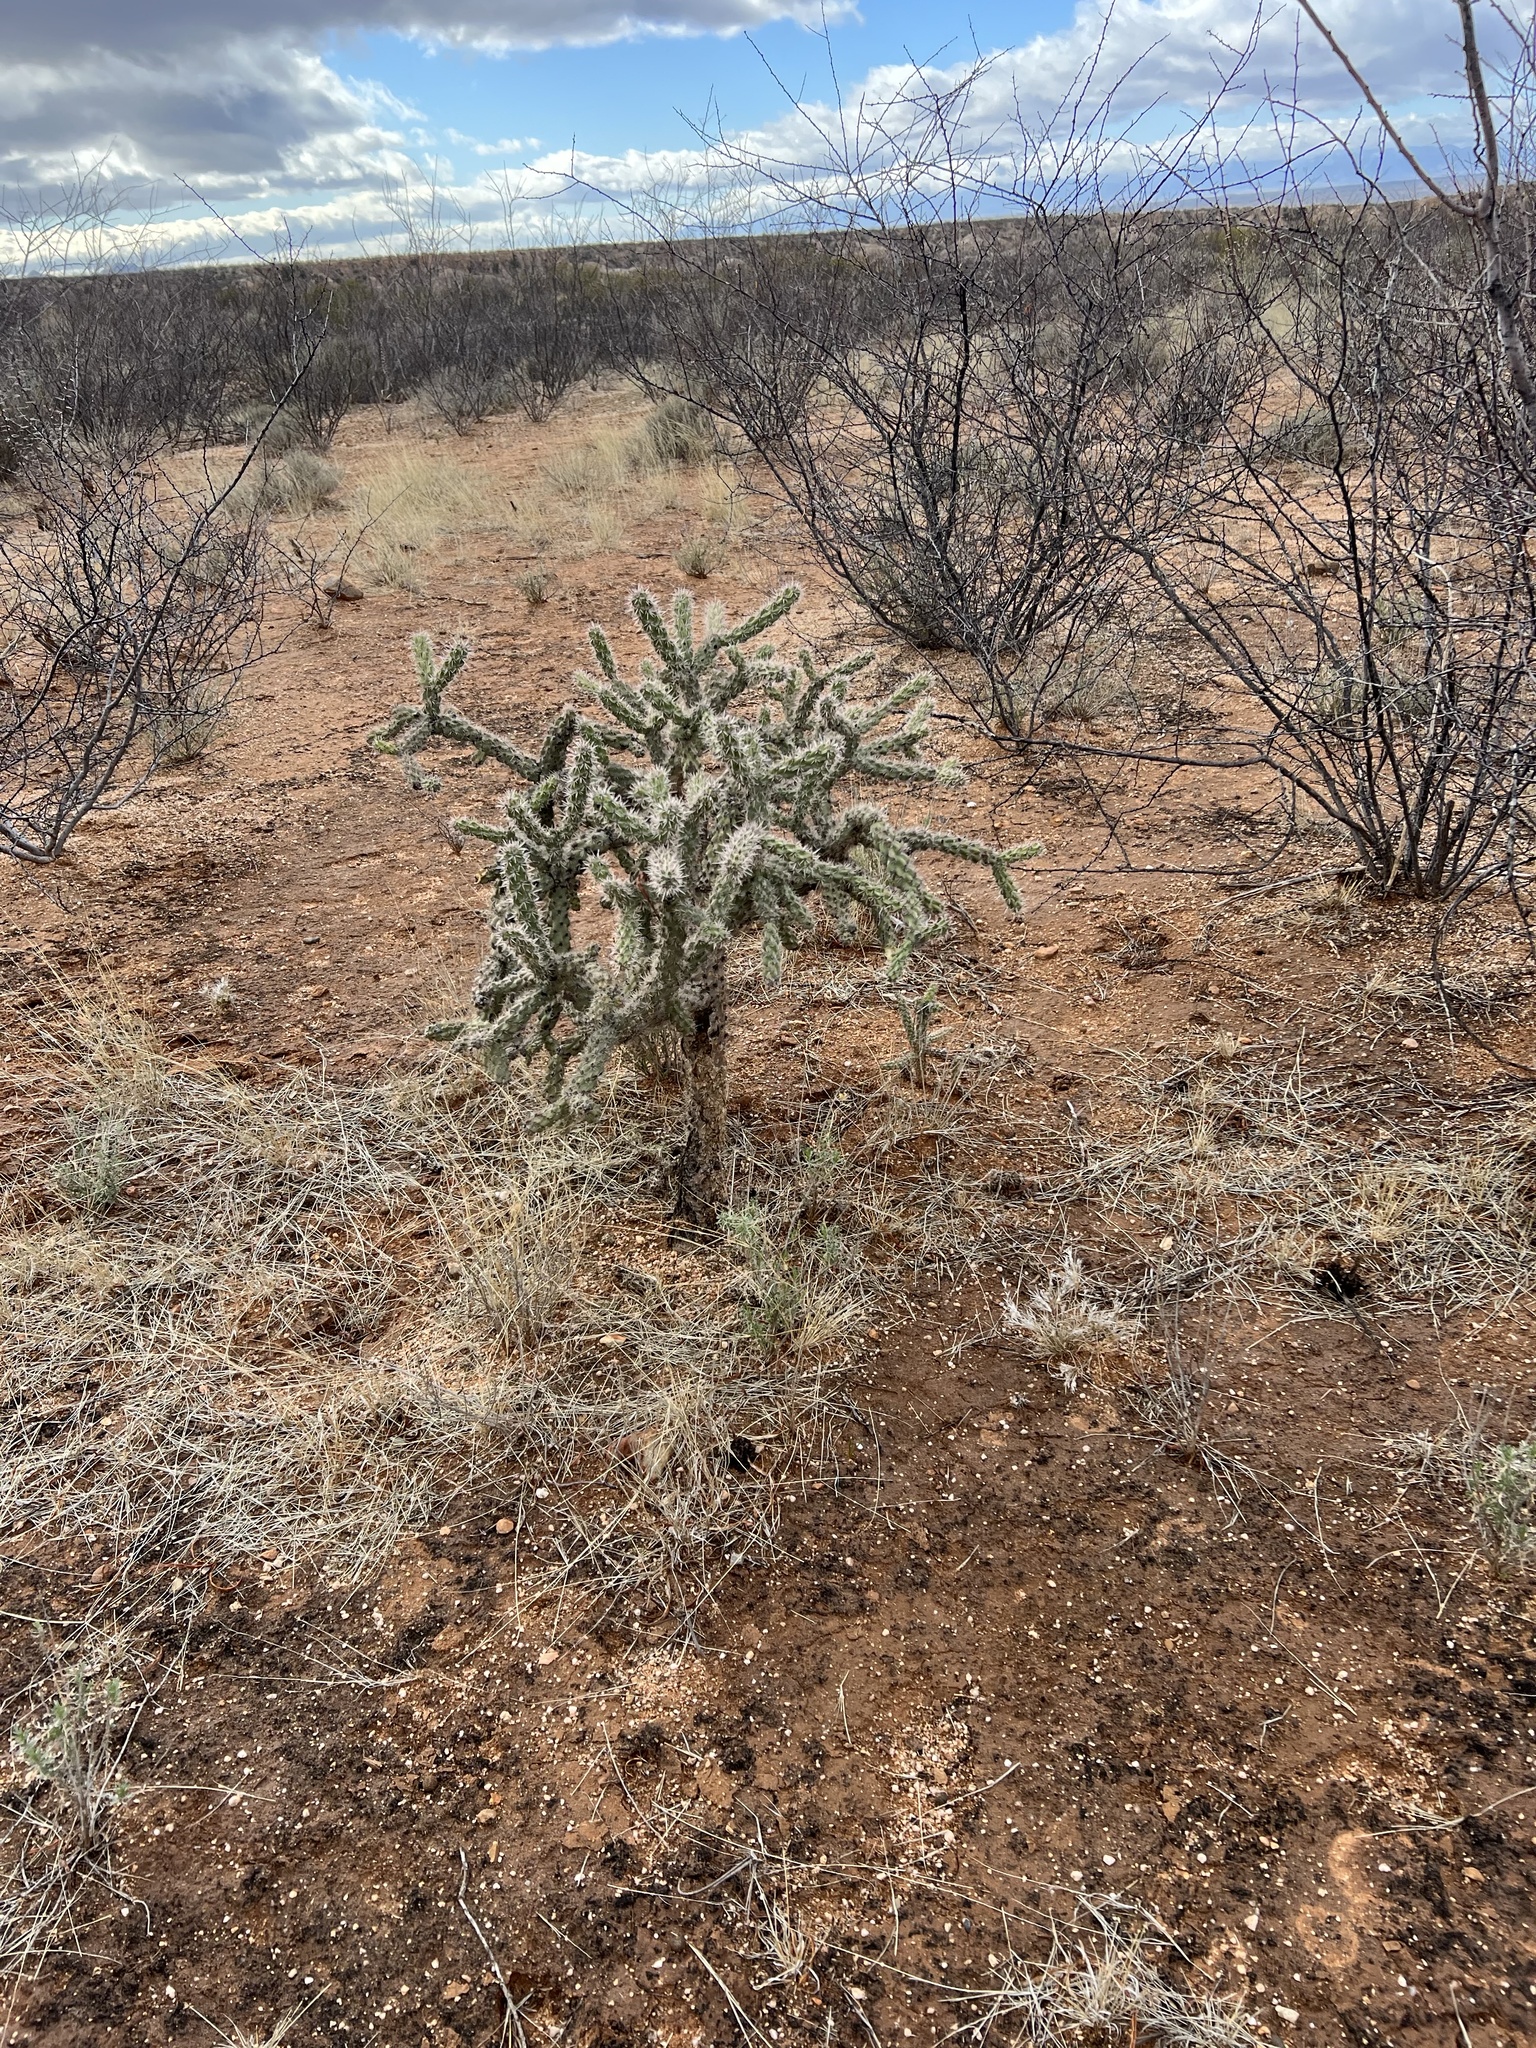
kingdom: Plantae
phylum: Tracheophyta
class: Magnoliopsida
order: Caryophyllales
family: Cactaceae
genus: Cylindropuntia
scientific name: Cylindropuntia imbricata
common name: Candelabrum cactus
